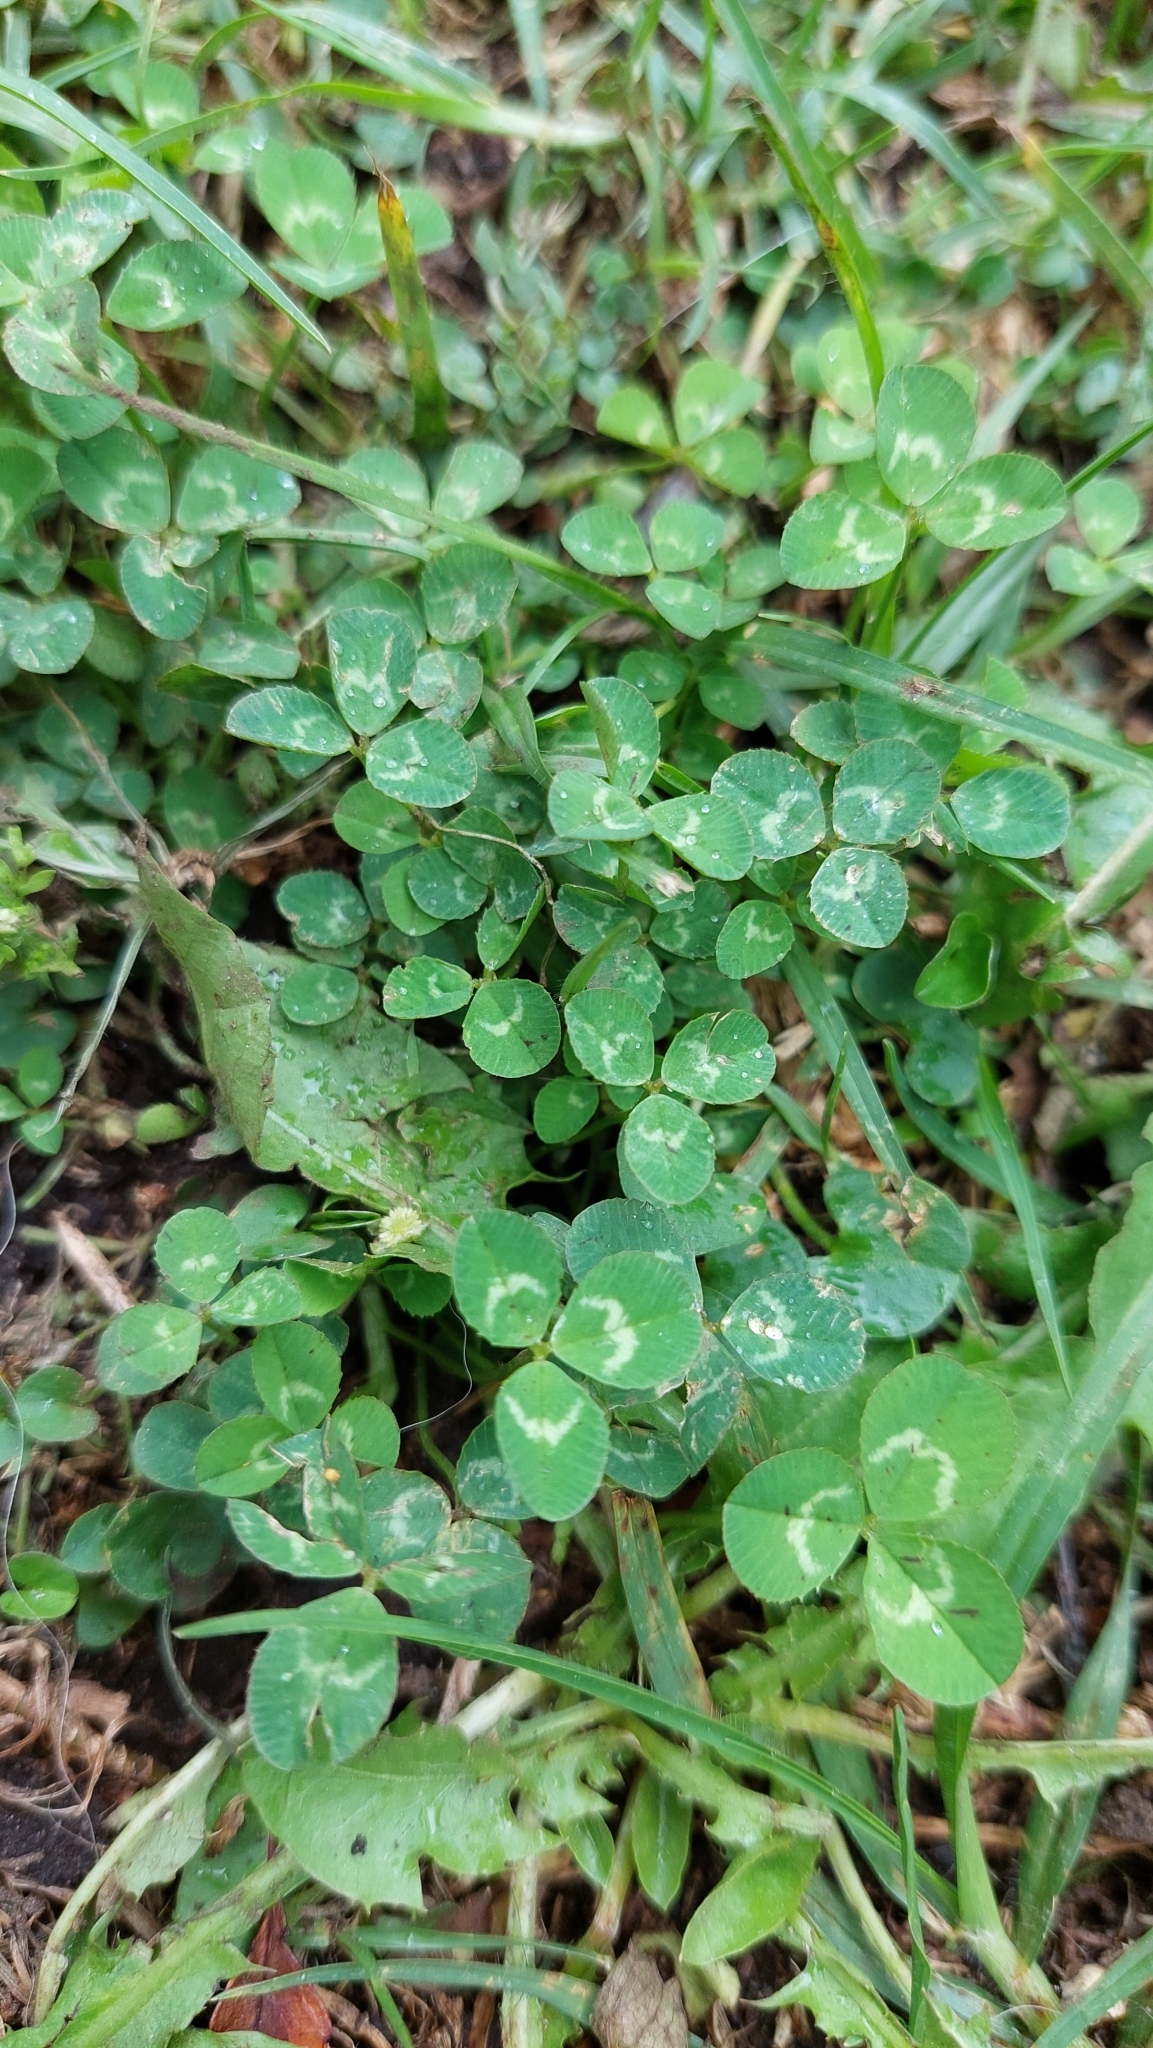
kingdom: Plantae
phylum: Tracheophyta
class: Magnoliopsida
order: Fabales
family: Fabaceae
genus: Trifolium
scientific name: Trifolium repens
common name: White clover
